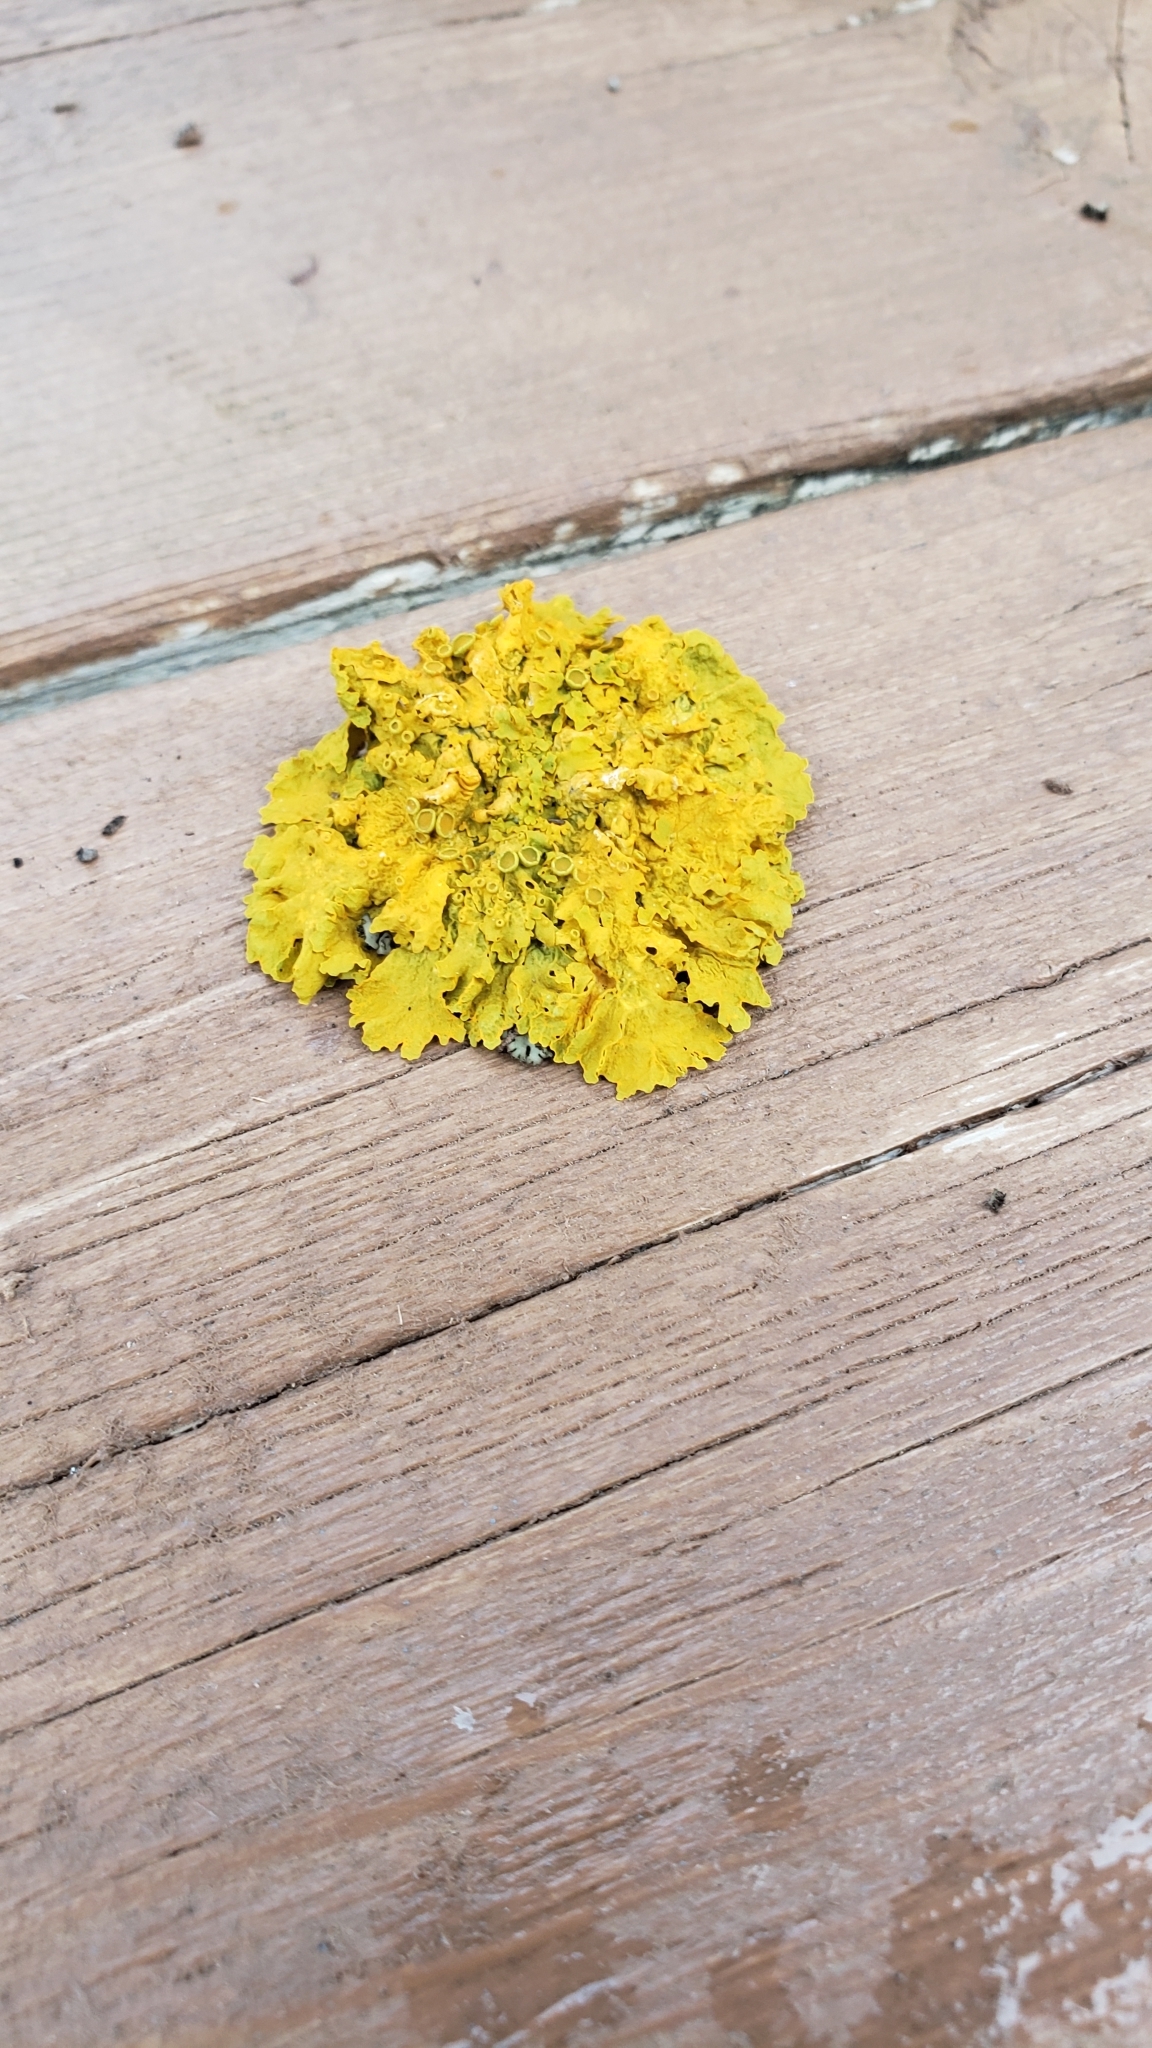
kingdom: Fungi
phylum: Ascomycota
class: Lecanoromycetes
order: Teloschistales
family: Teloschistaceae
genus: Xanthoria
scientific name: Xanthoria parietina
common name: Common orange lichen
